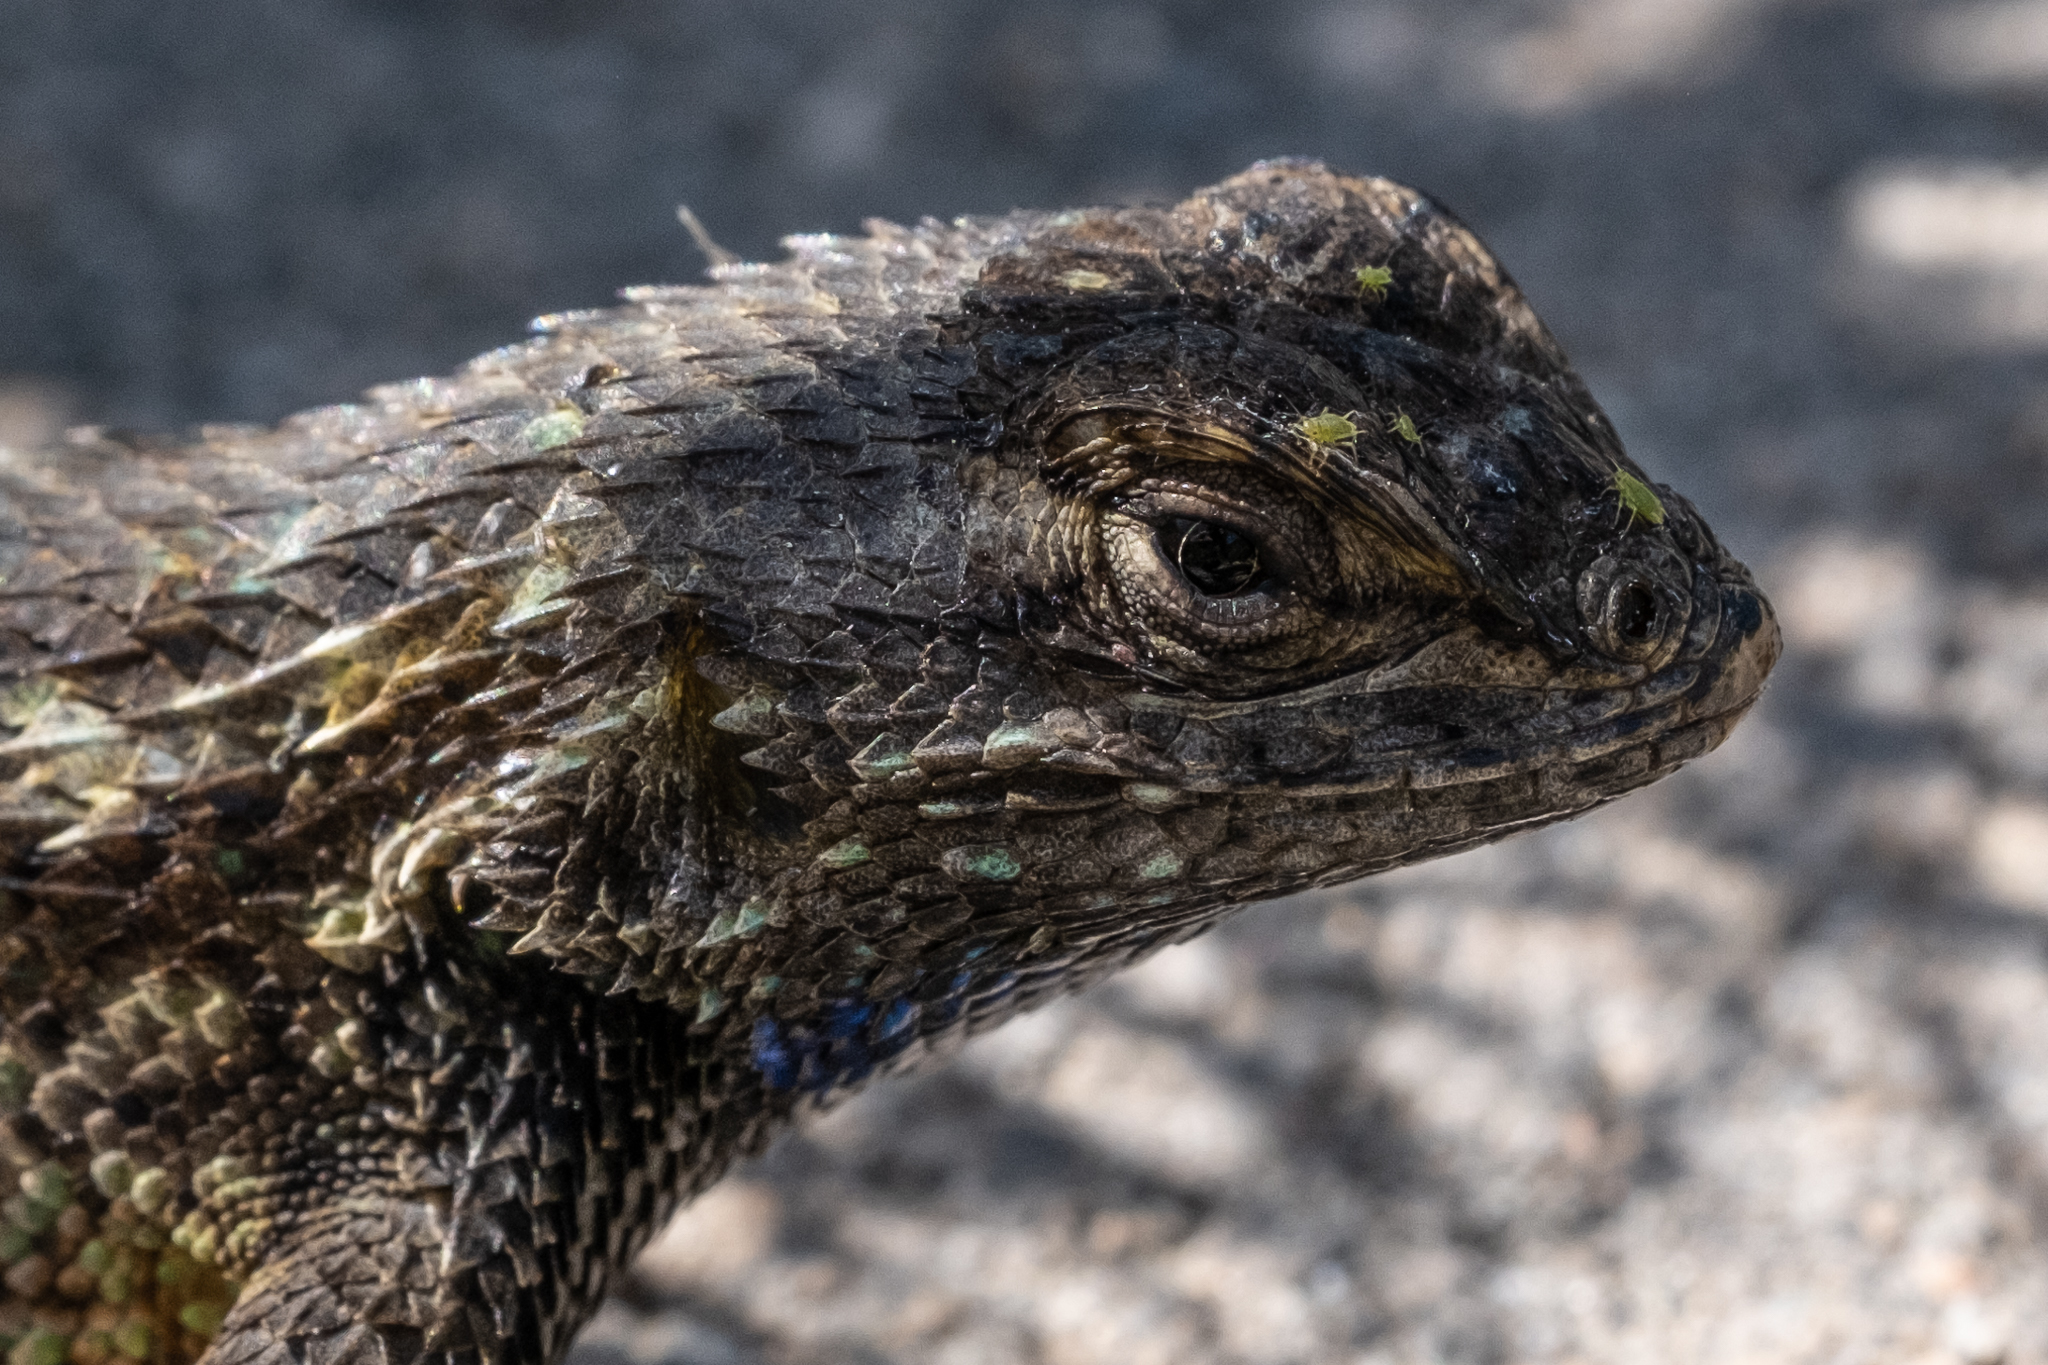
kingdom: Animalia
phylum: Chordata
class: Squamata
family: Phrynosomatidae
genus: Sceloporus
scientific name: Sceloporus occidentalis
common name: Western fence lizard
